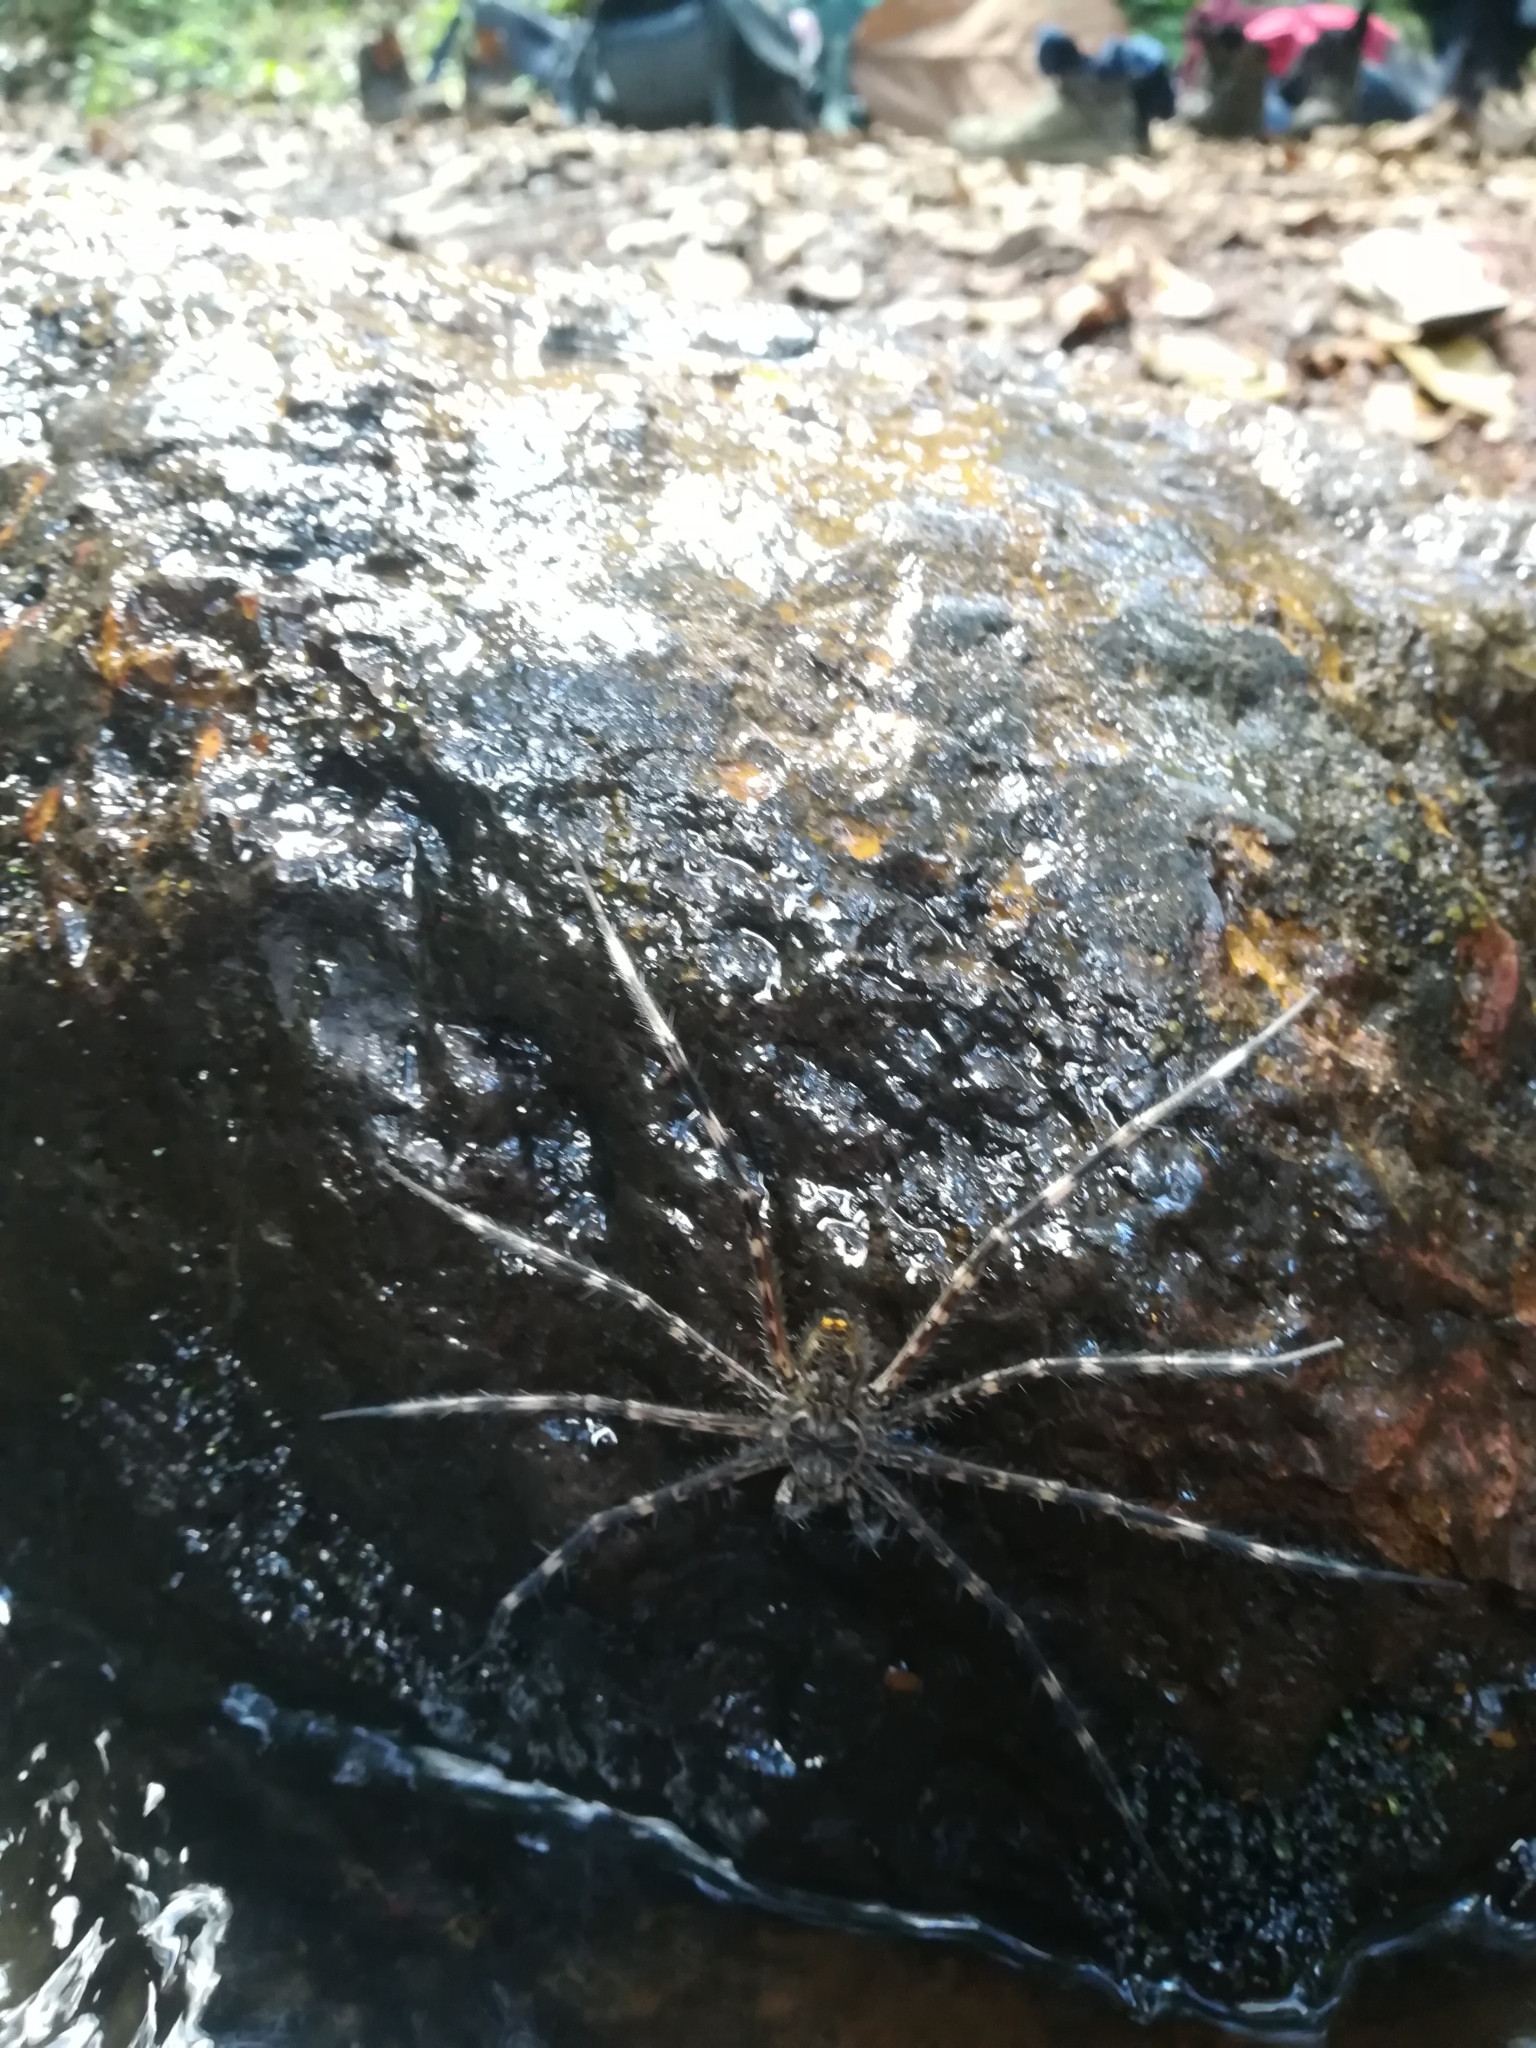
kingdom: Animalia
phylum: Arthropoda
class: Arachnida
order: Araneae
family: Trechaleidae
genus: Trechalea
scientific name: Trechalea
